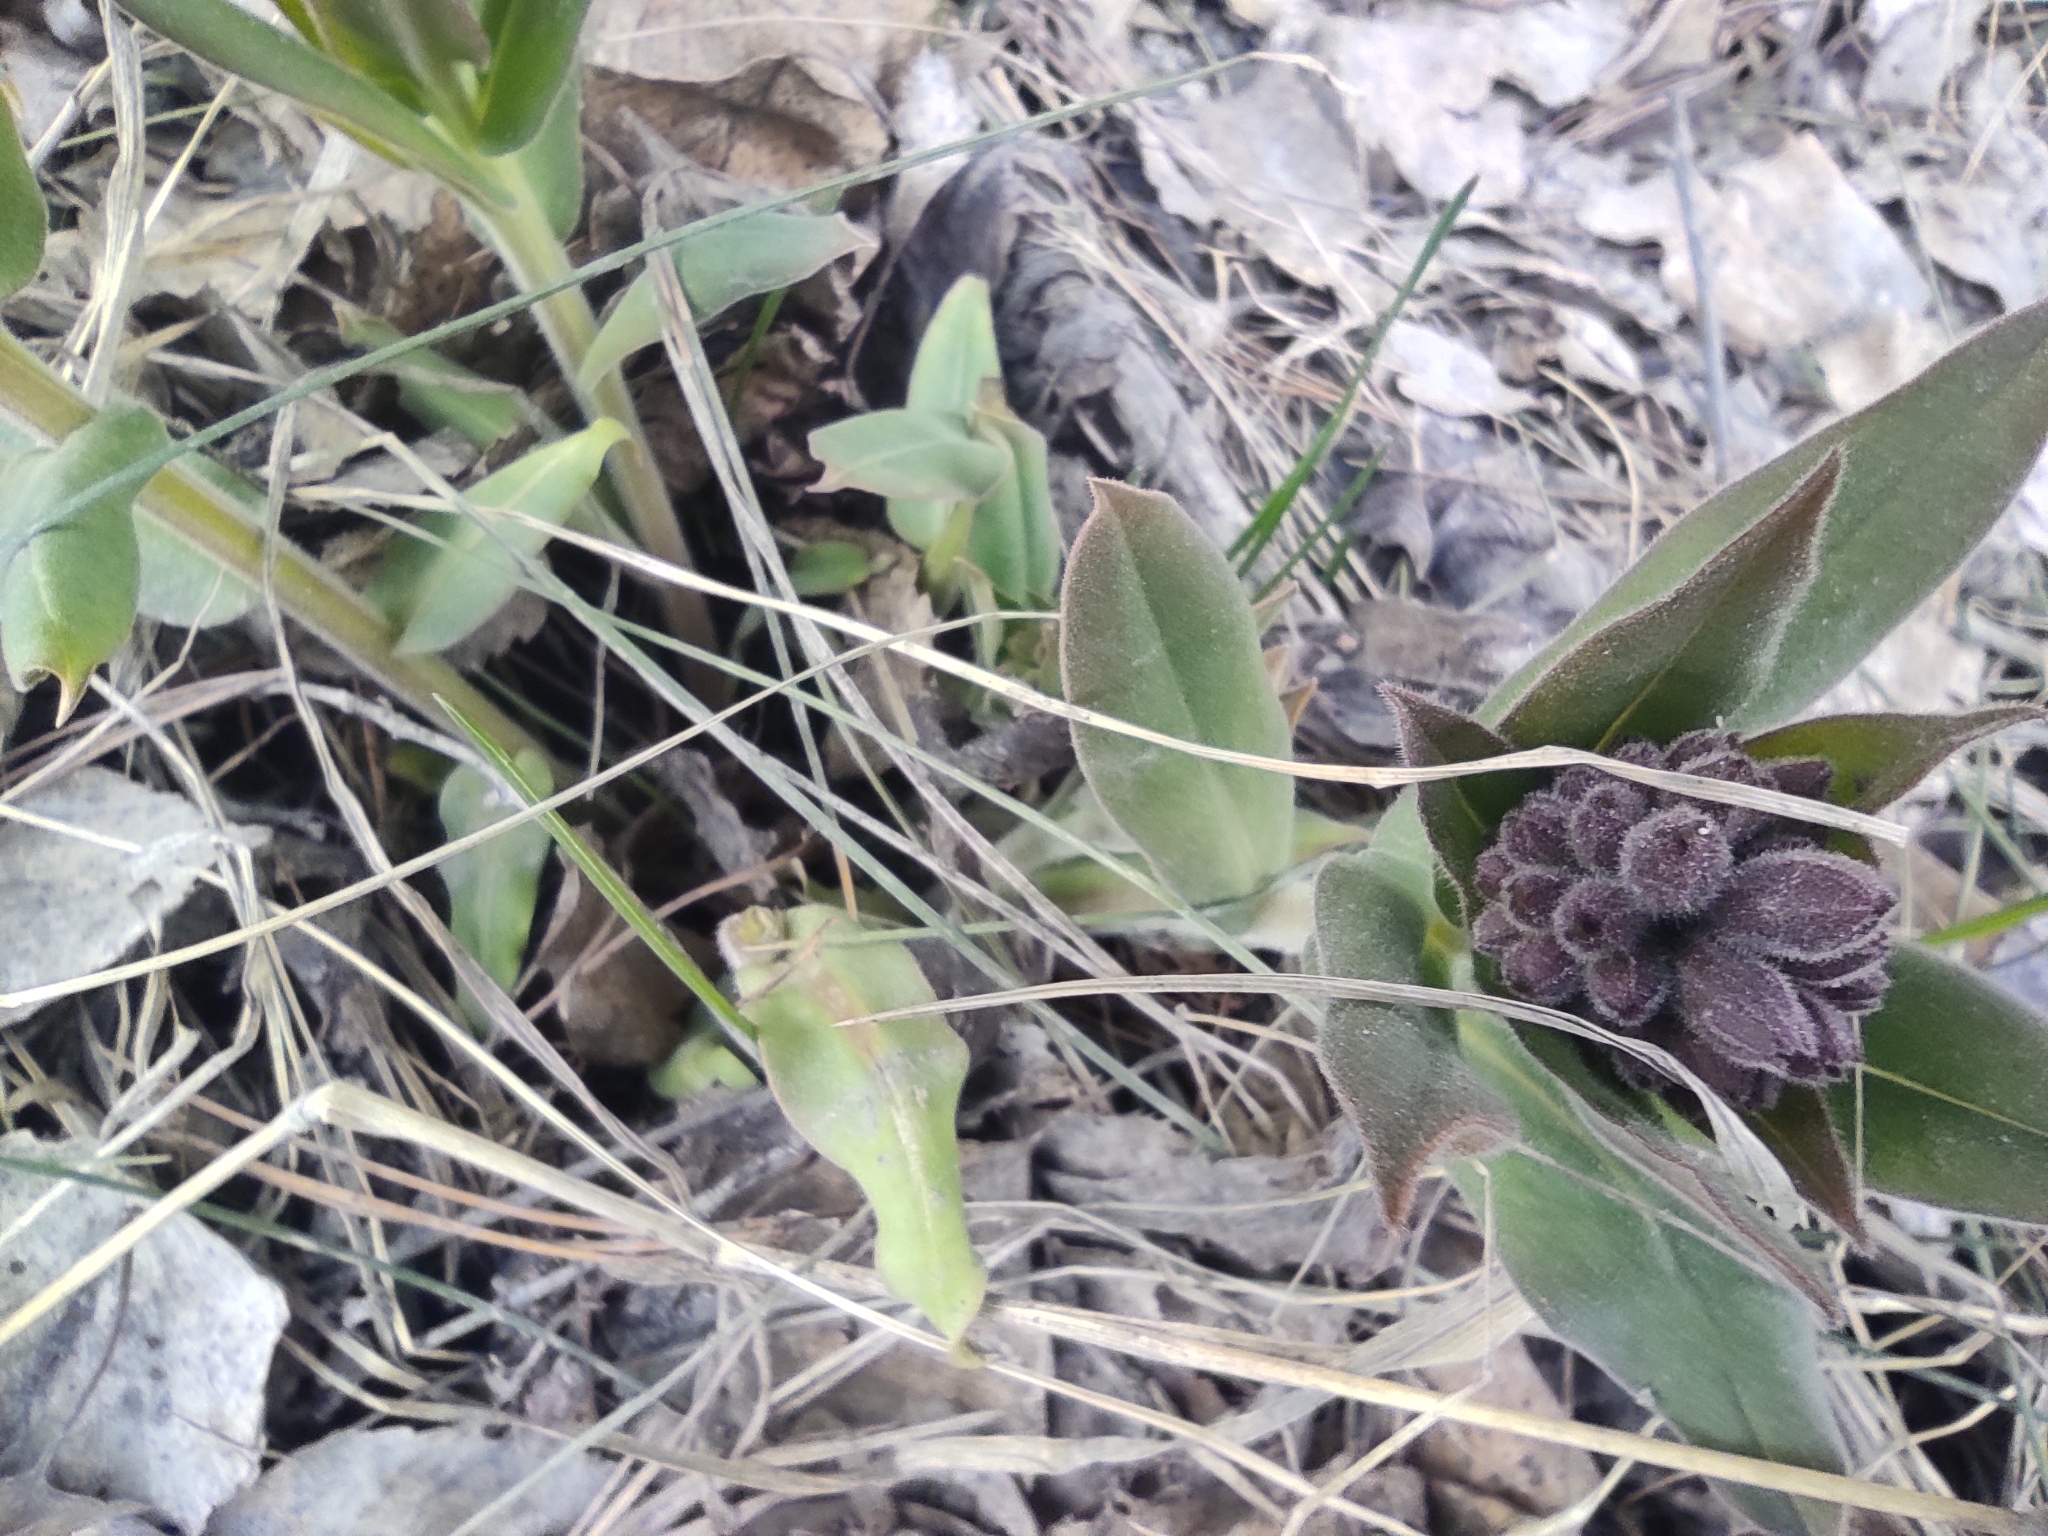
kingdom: Plantae
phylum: Tracheophyta
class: Magnoliopsida
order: Boraginales
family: Boraginaceae
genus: Pulmonaria
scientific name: Pulmonaria mollis
